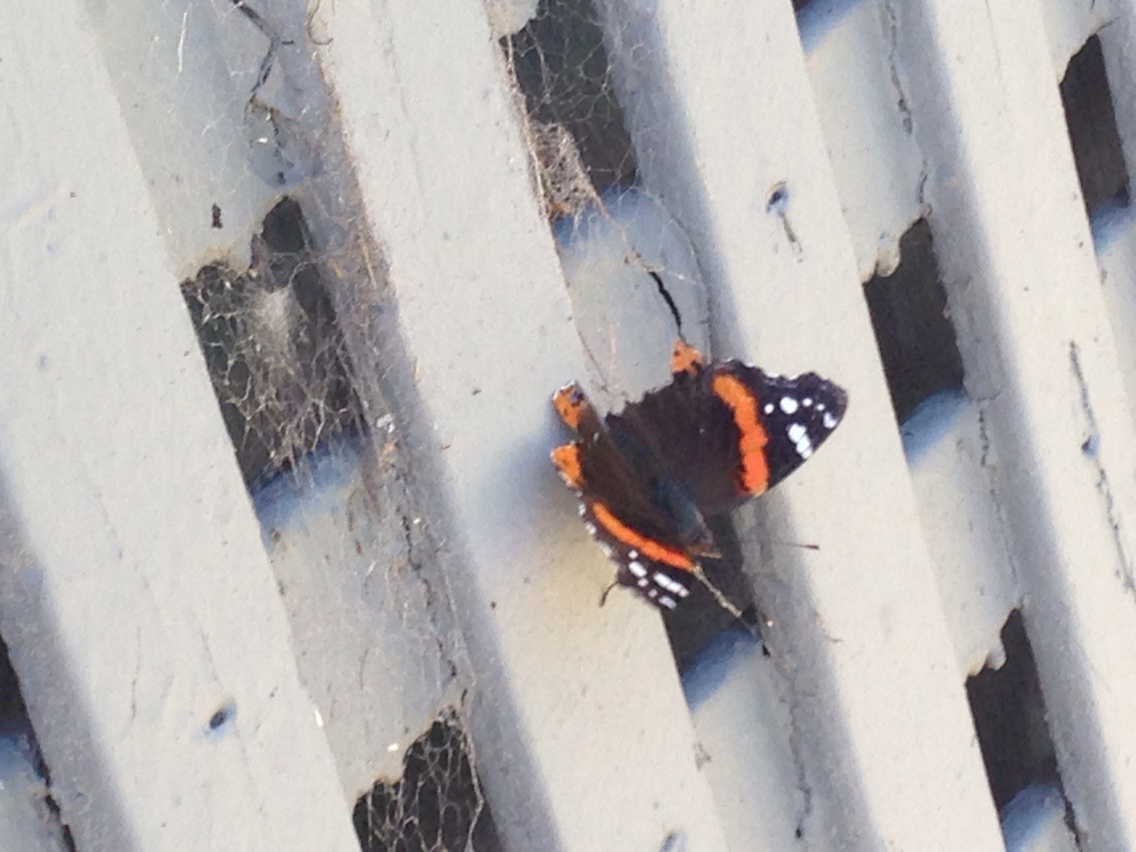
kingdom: Animalia
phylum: Arthropoda
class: Insecta
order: Lepidoptera
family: Nymphalidae
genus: Vanessa
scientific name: Vanessa atalanta
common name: Red admiral
